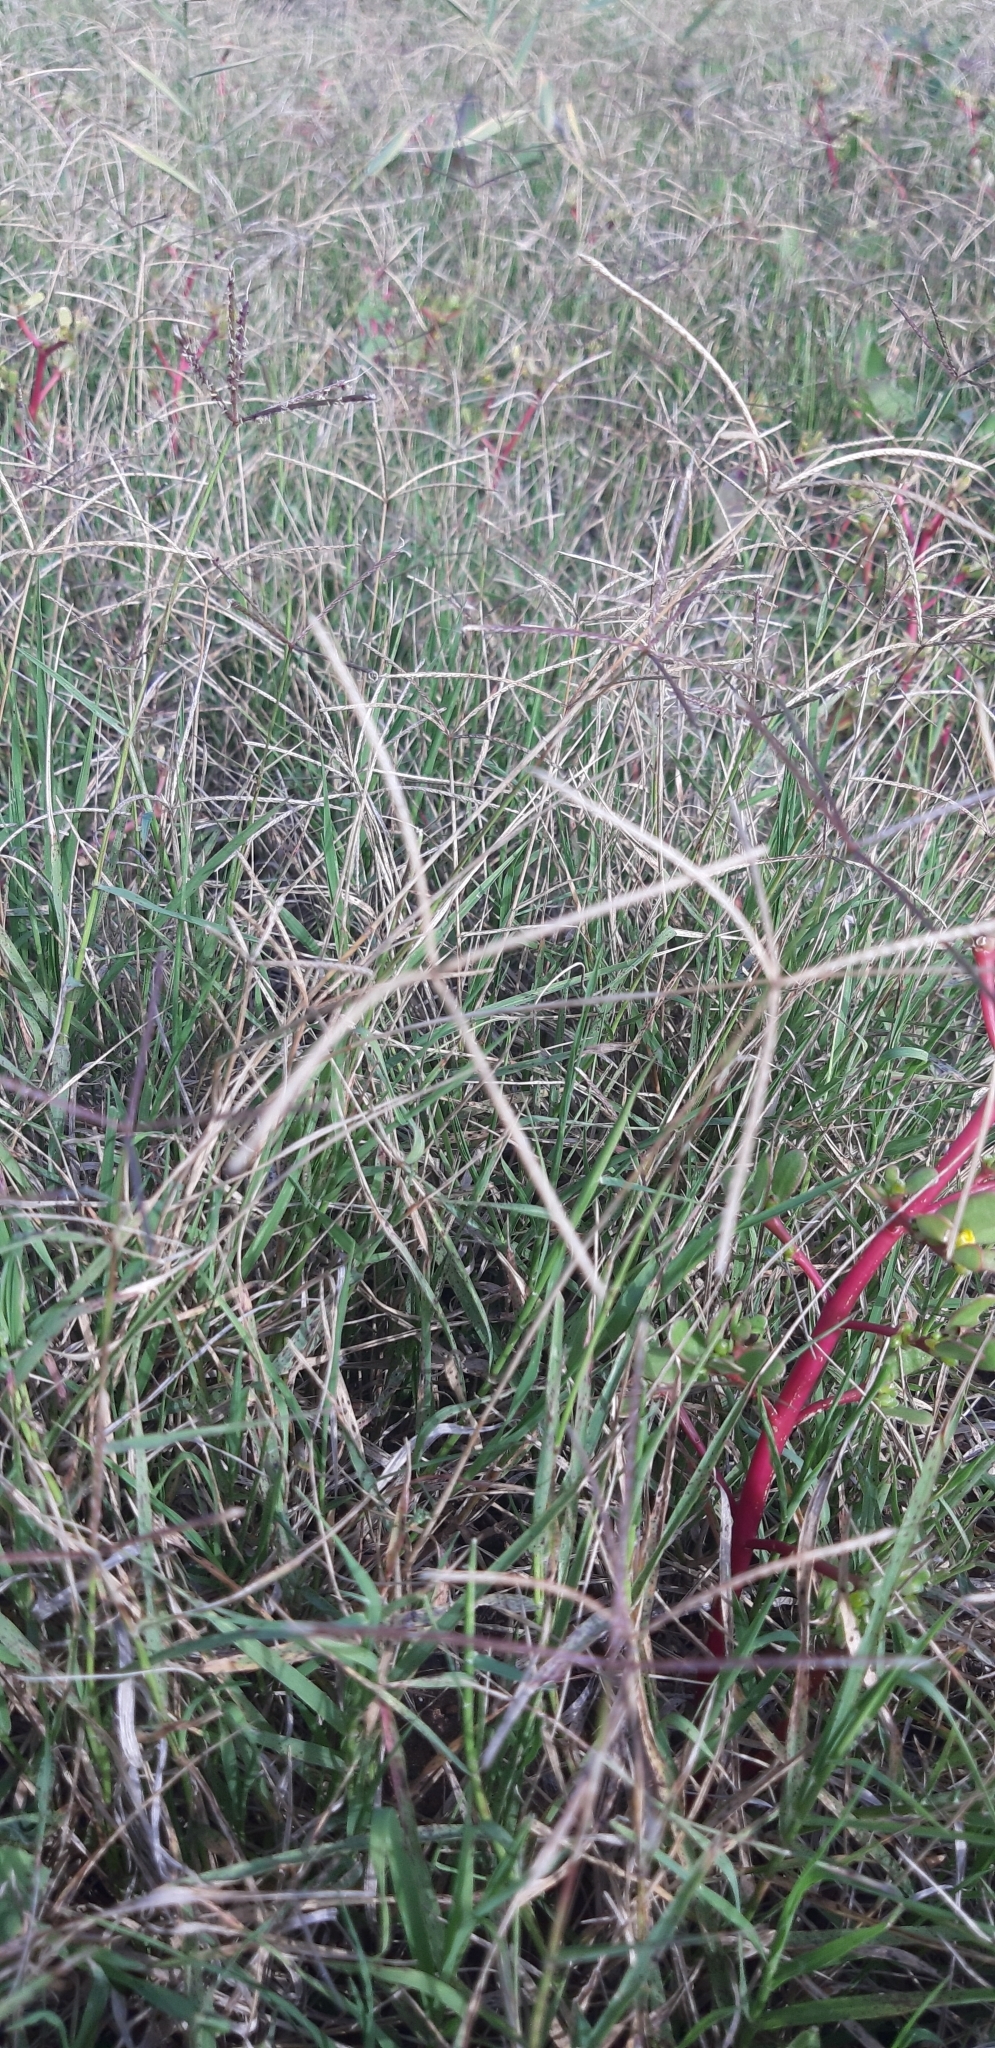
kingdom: Plantae
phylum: Tracheophyta
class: Liliopsida
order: Poales
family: Poaceae
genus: Cynodon
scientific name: Cynodon dactylon
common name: Bermuda grass
